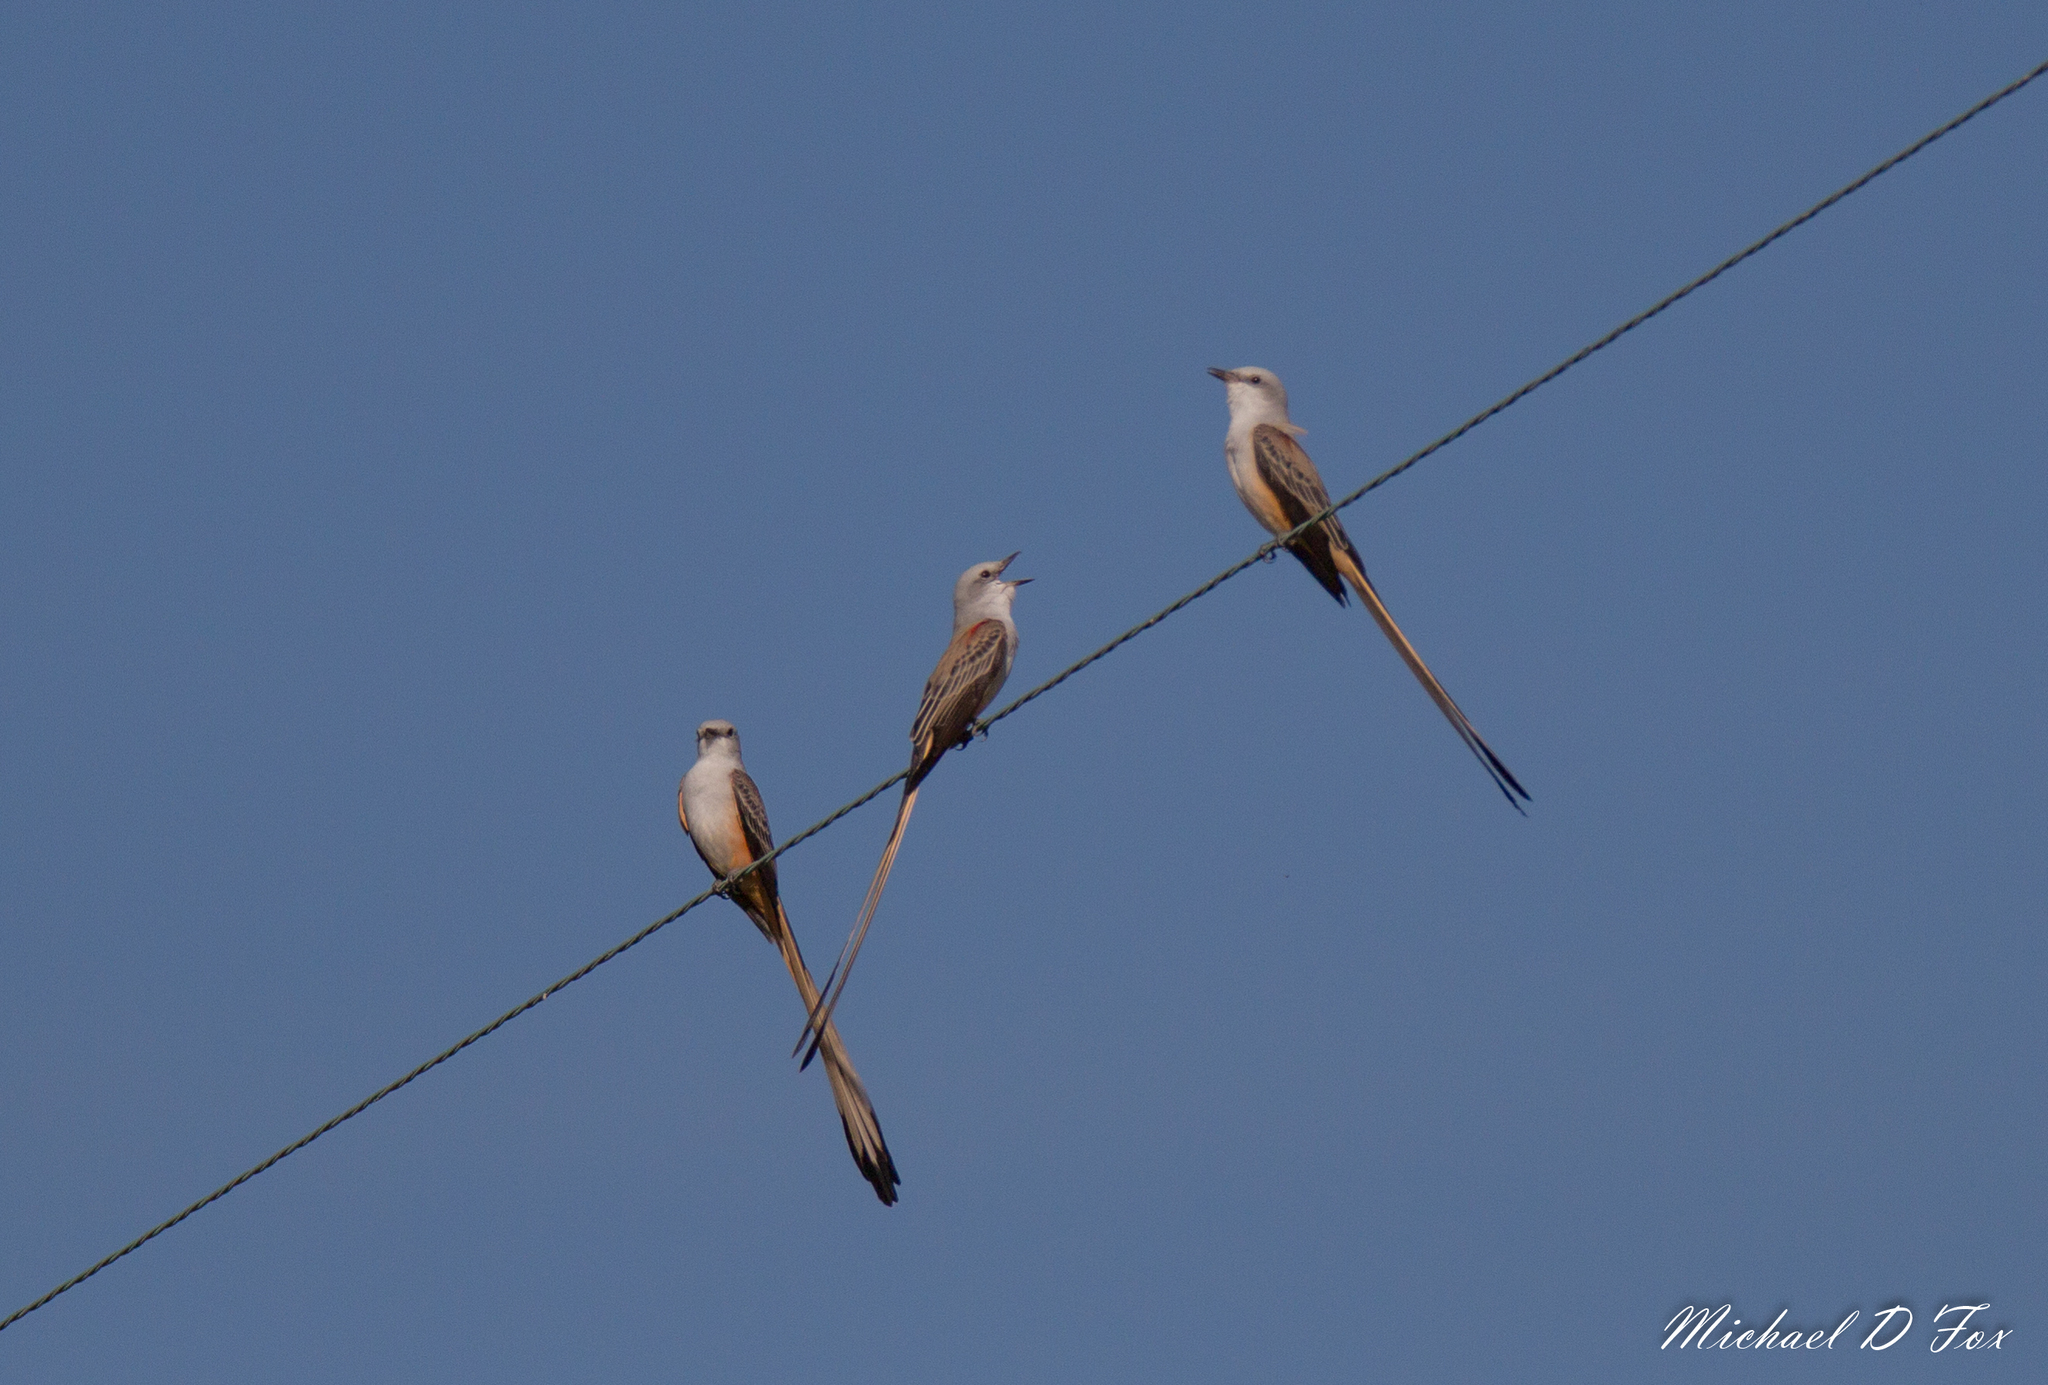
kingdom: Animalia
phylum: Chordata
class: Aves
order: Passeriformes
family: Tyrannidae
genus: Tyrannus
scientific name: Tyrannus forficatus
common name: Scissor-tailed flycatcher
